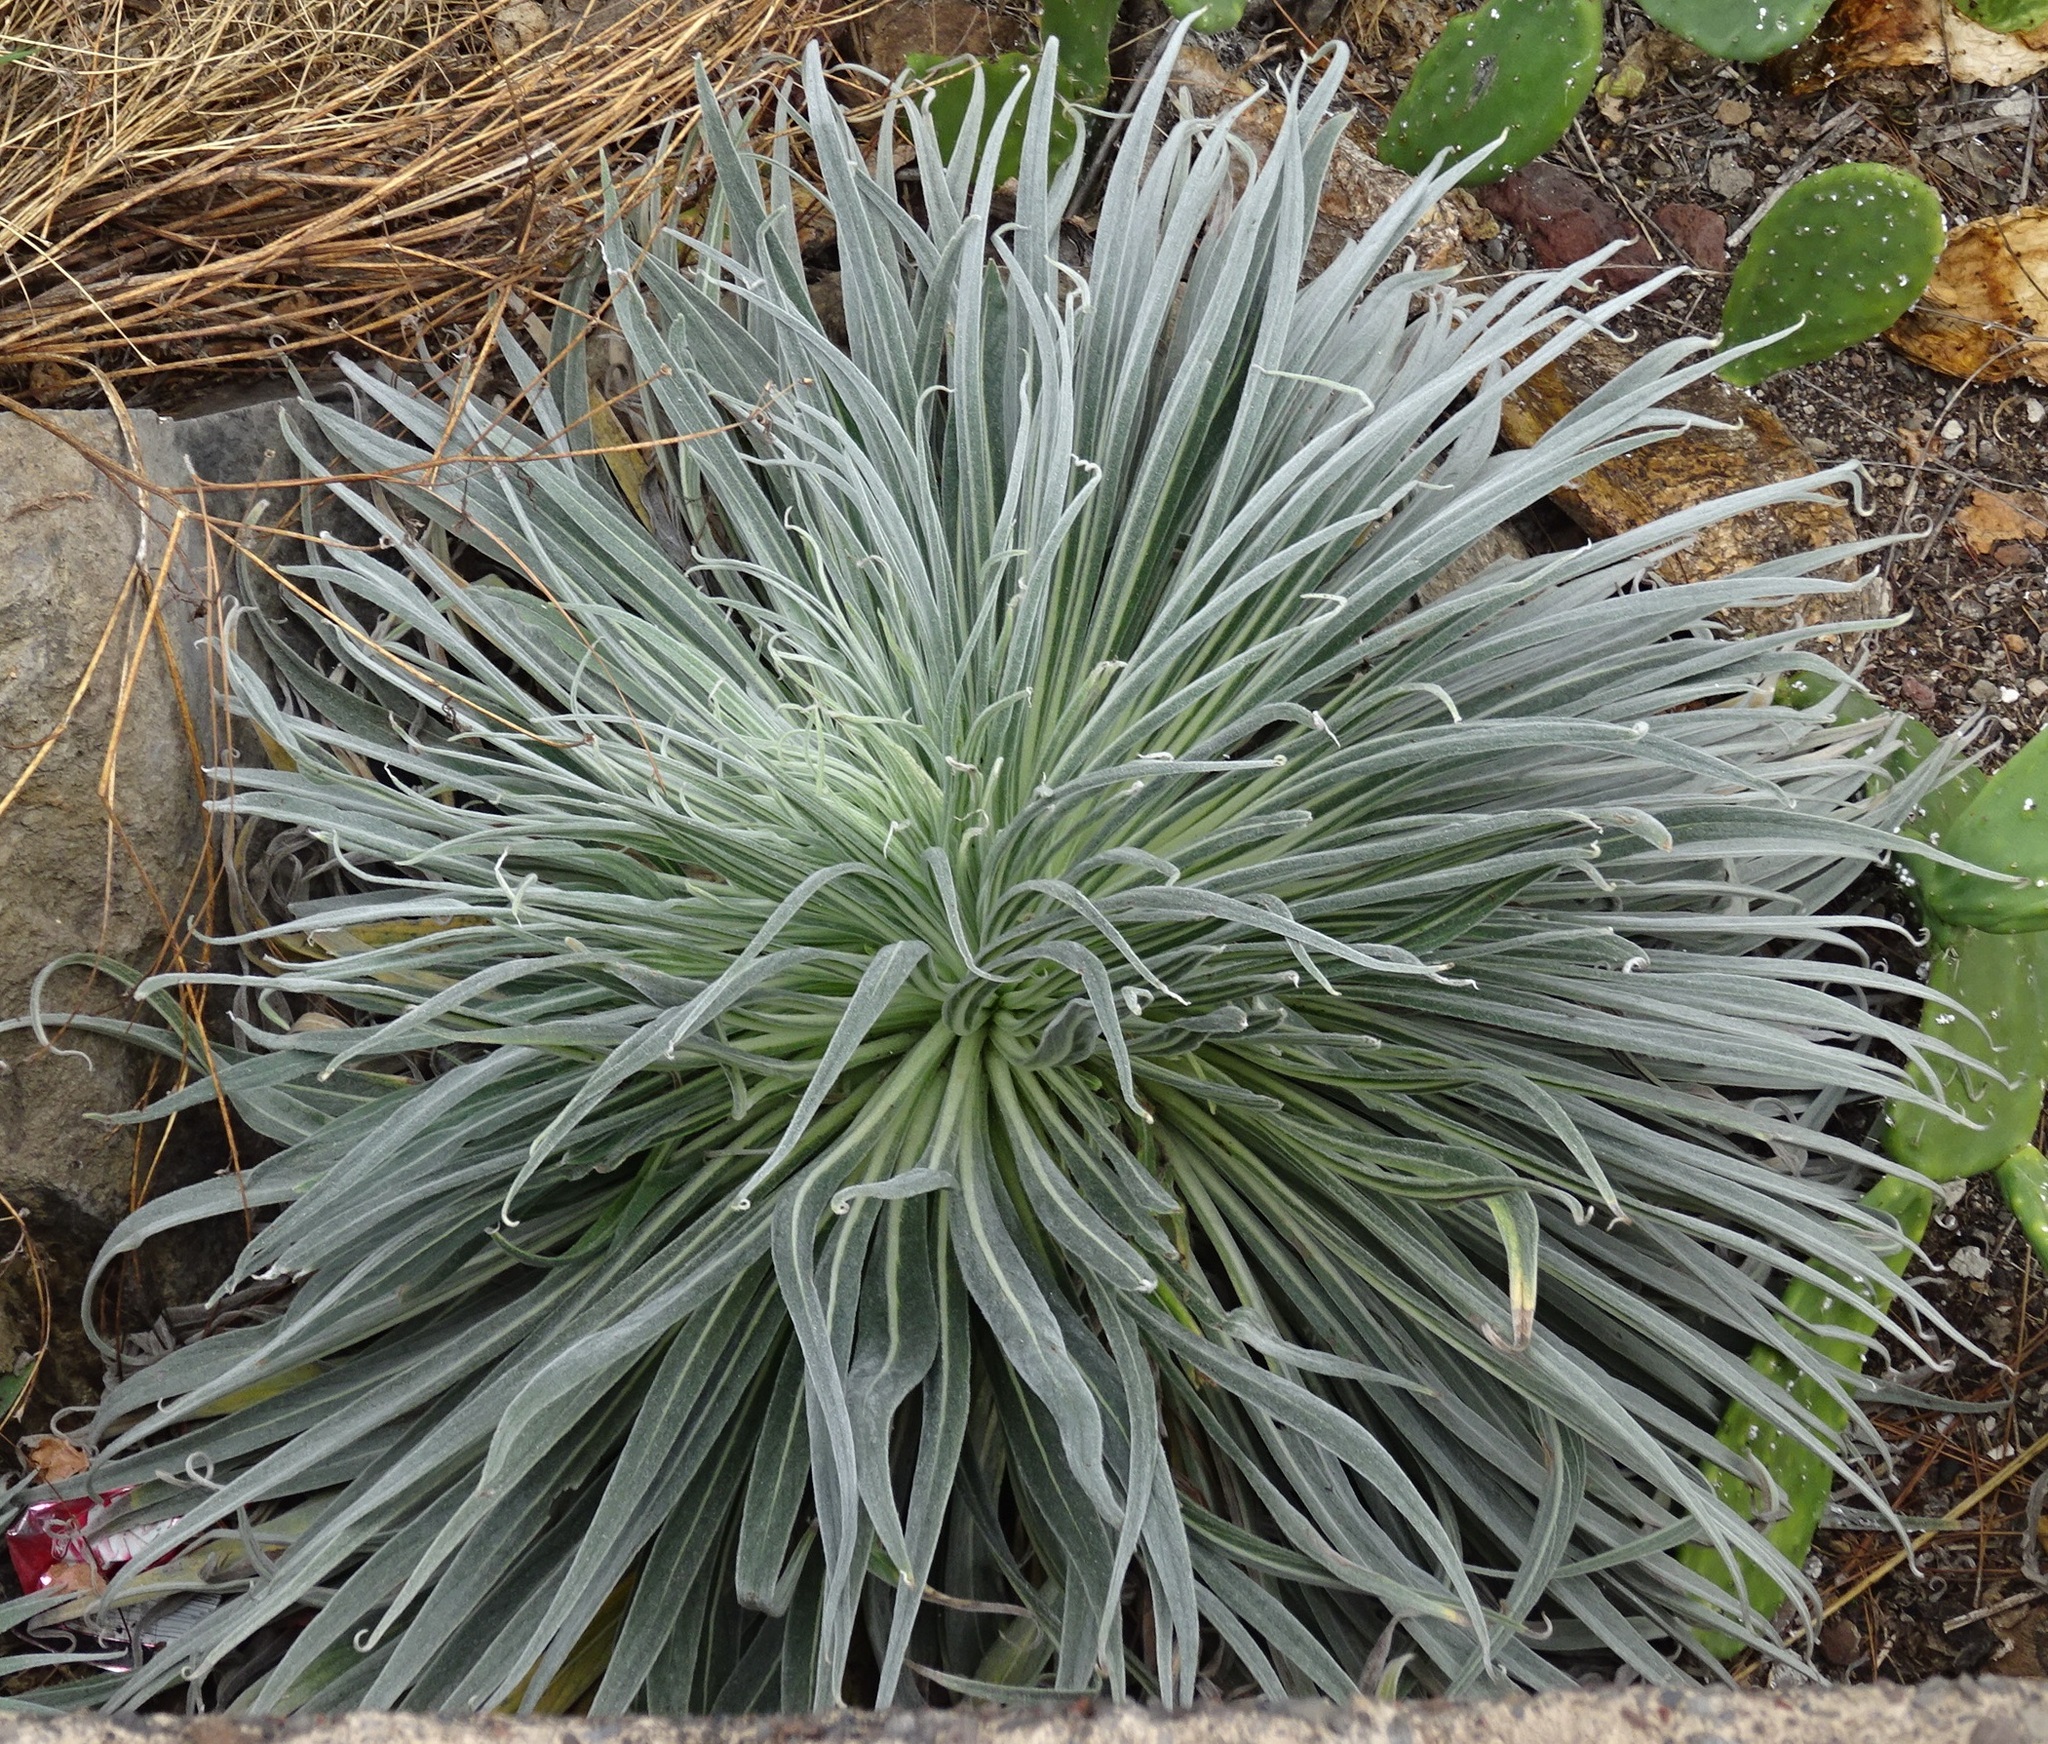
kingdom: Plantae
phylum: Tracheophyta
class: Magnoliopsida
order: Boraginales
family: Boraginaceae
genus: Echium
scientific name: Echium wildpretii
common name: Tower-of-jewels
